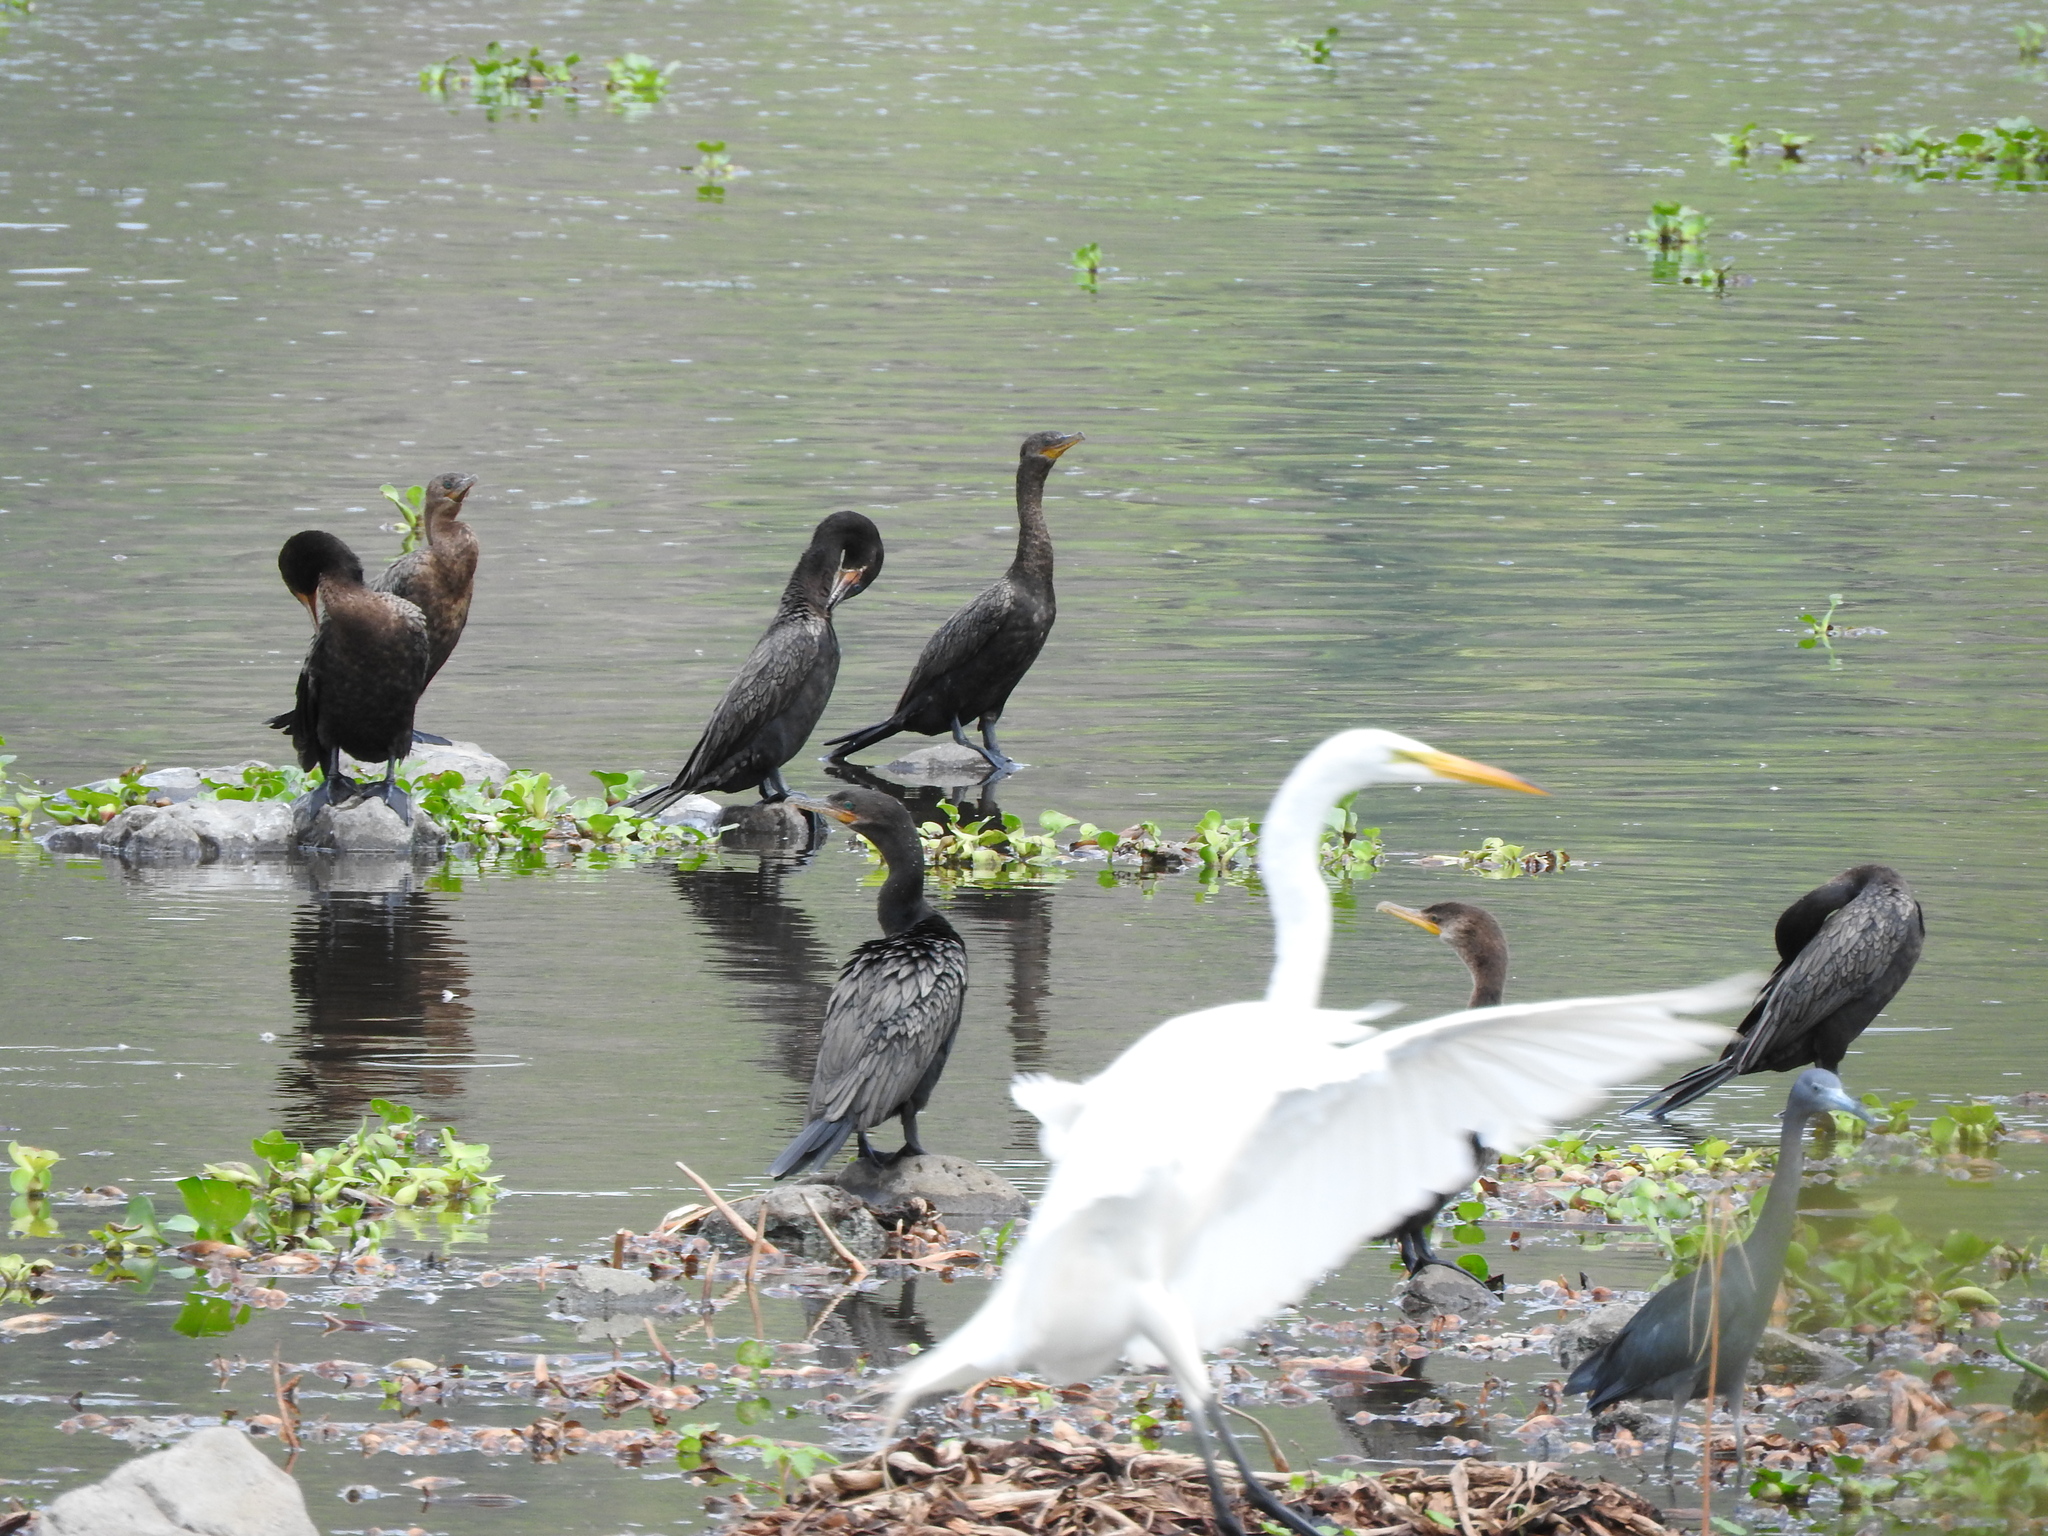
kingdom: Animalia
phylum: Chordata
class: Aves
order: Pelecaniformes
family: Ardeidae
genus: Egretta
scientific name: Egretta caerulea
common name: Little blue heron
